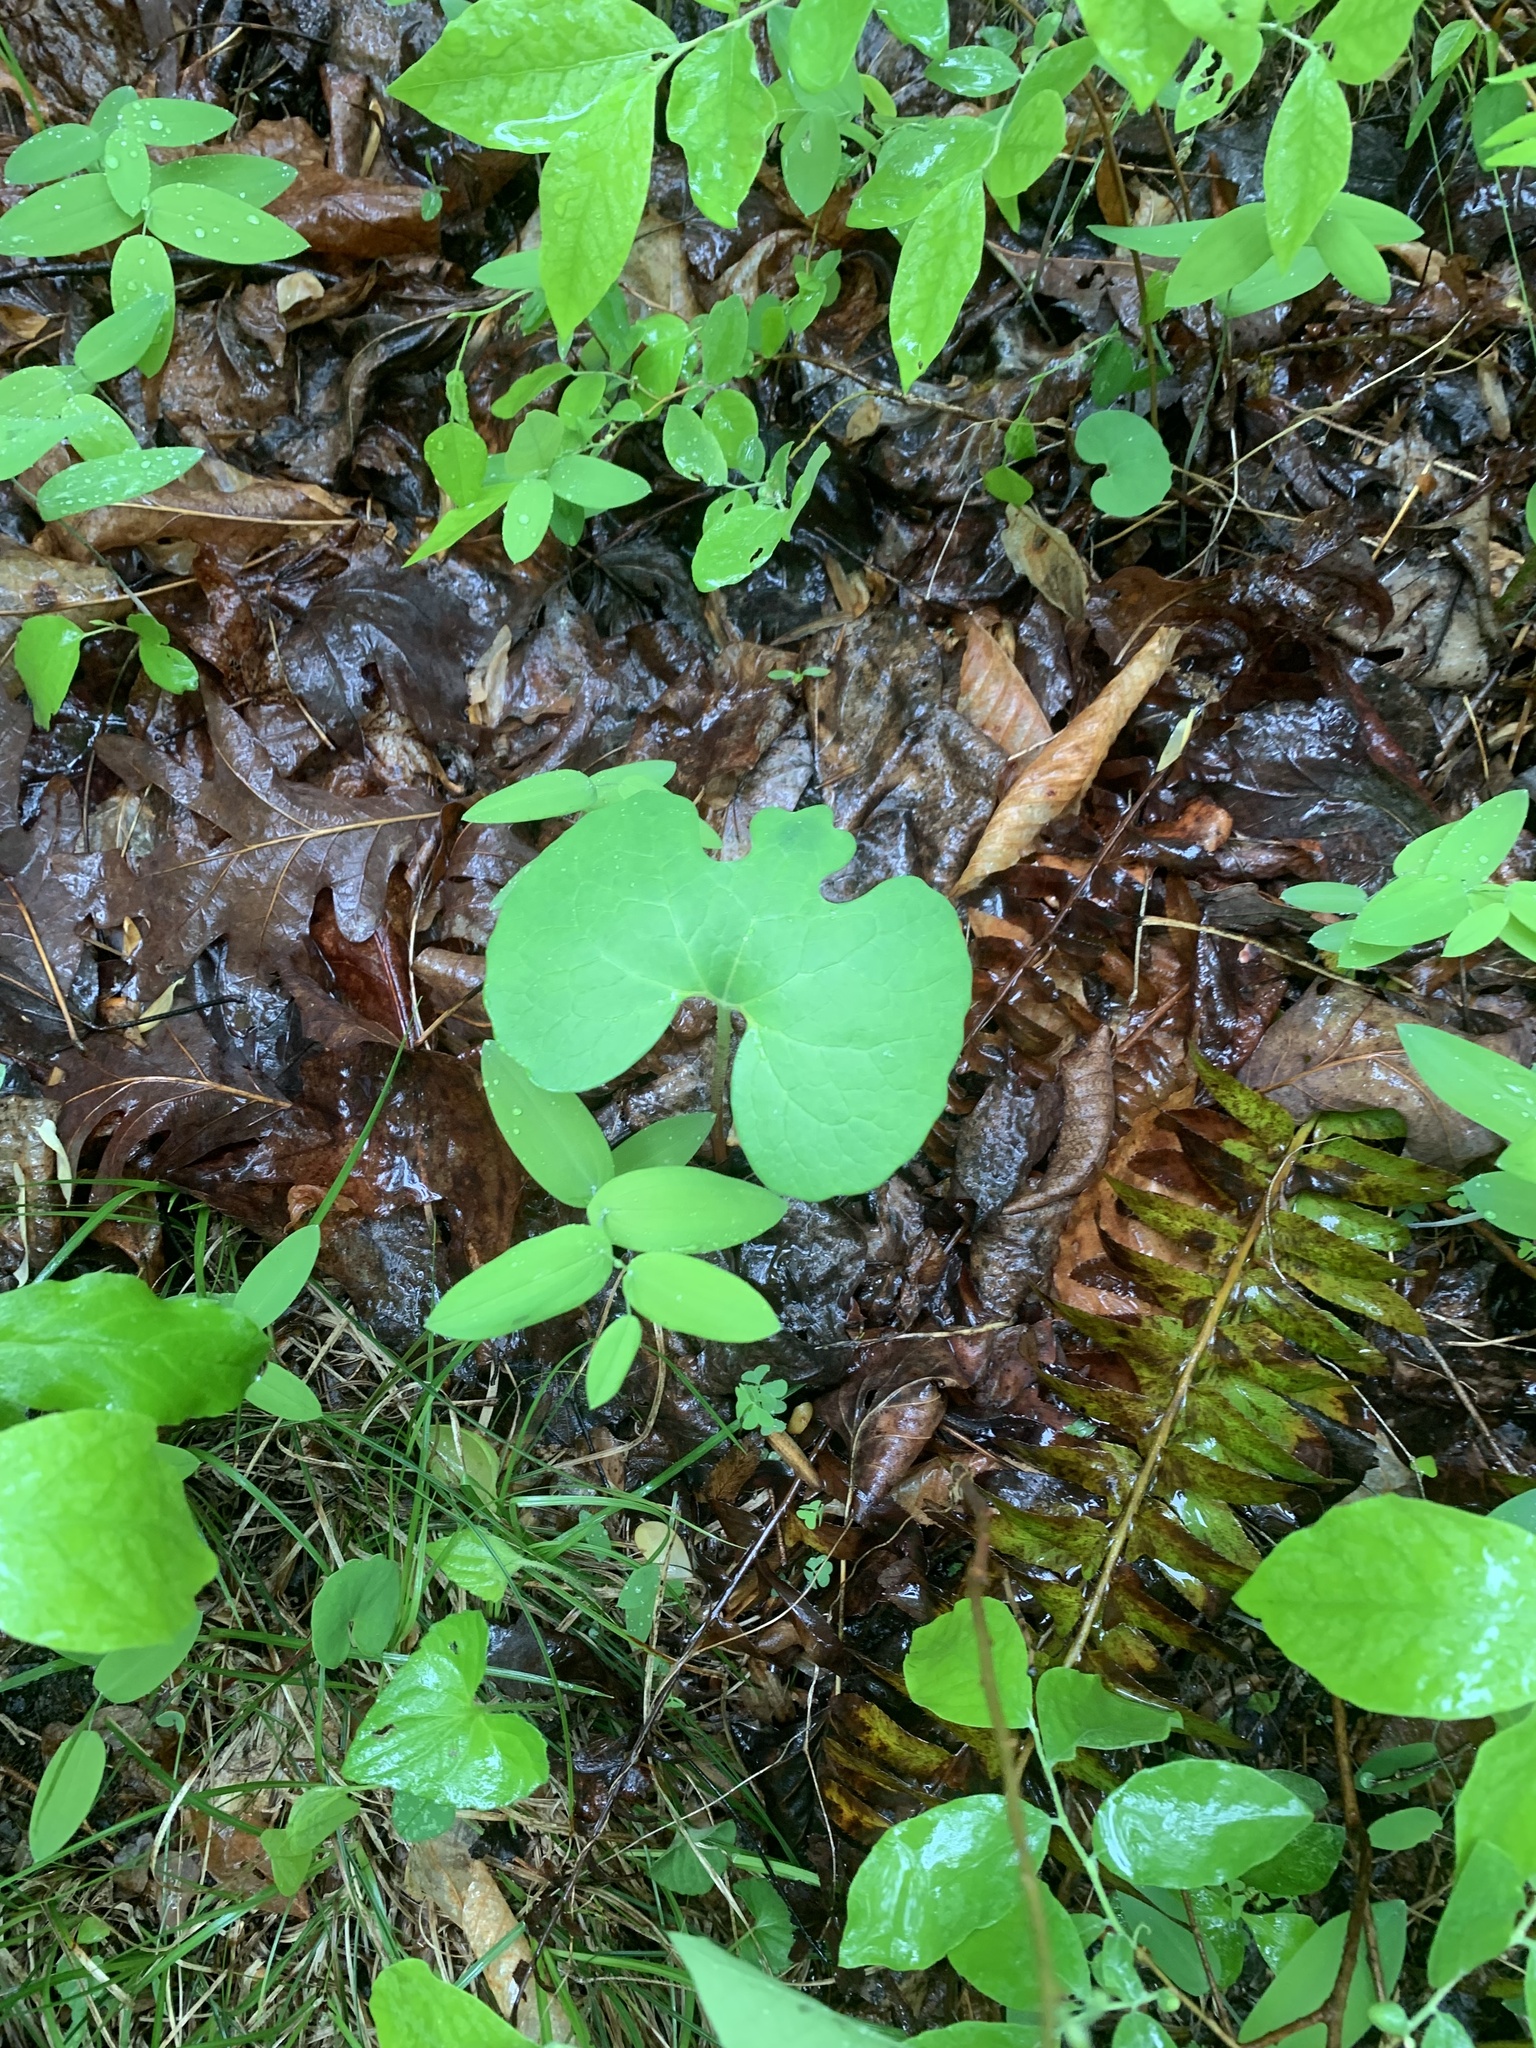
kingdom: Plantae
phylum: Tracheophyta
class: Magnoliopsida
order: Ranunculales
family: Papaveraceae
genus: Sanguinaria
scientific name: Sanguinaria canadensis
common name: Bloodroot
